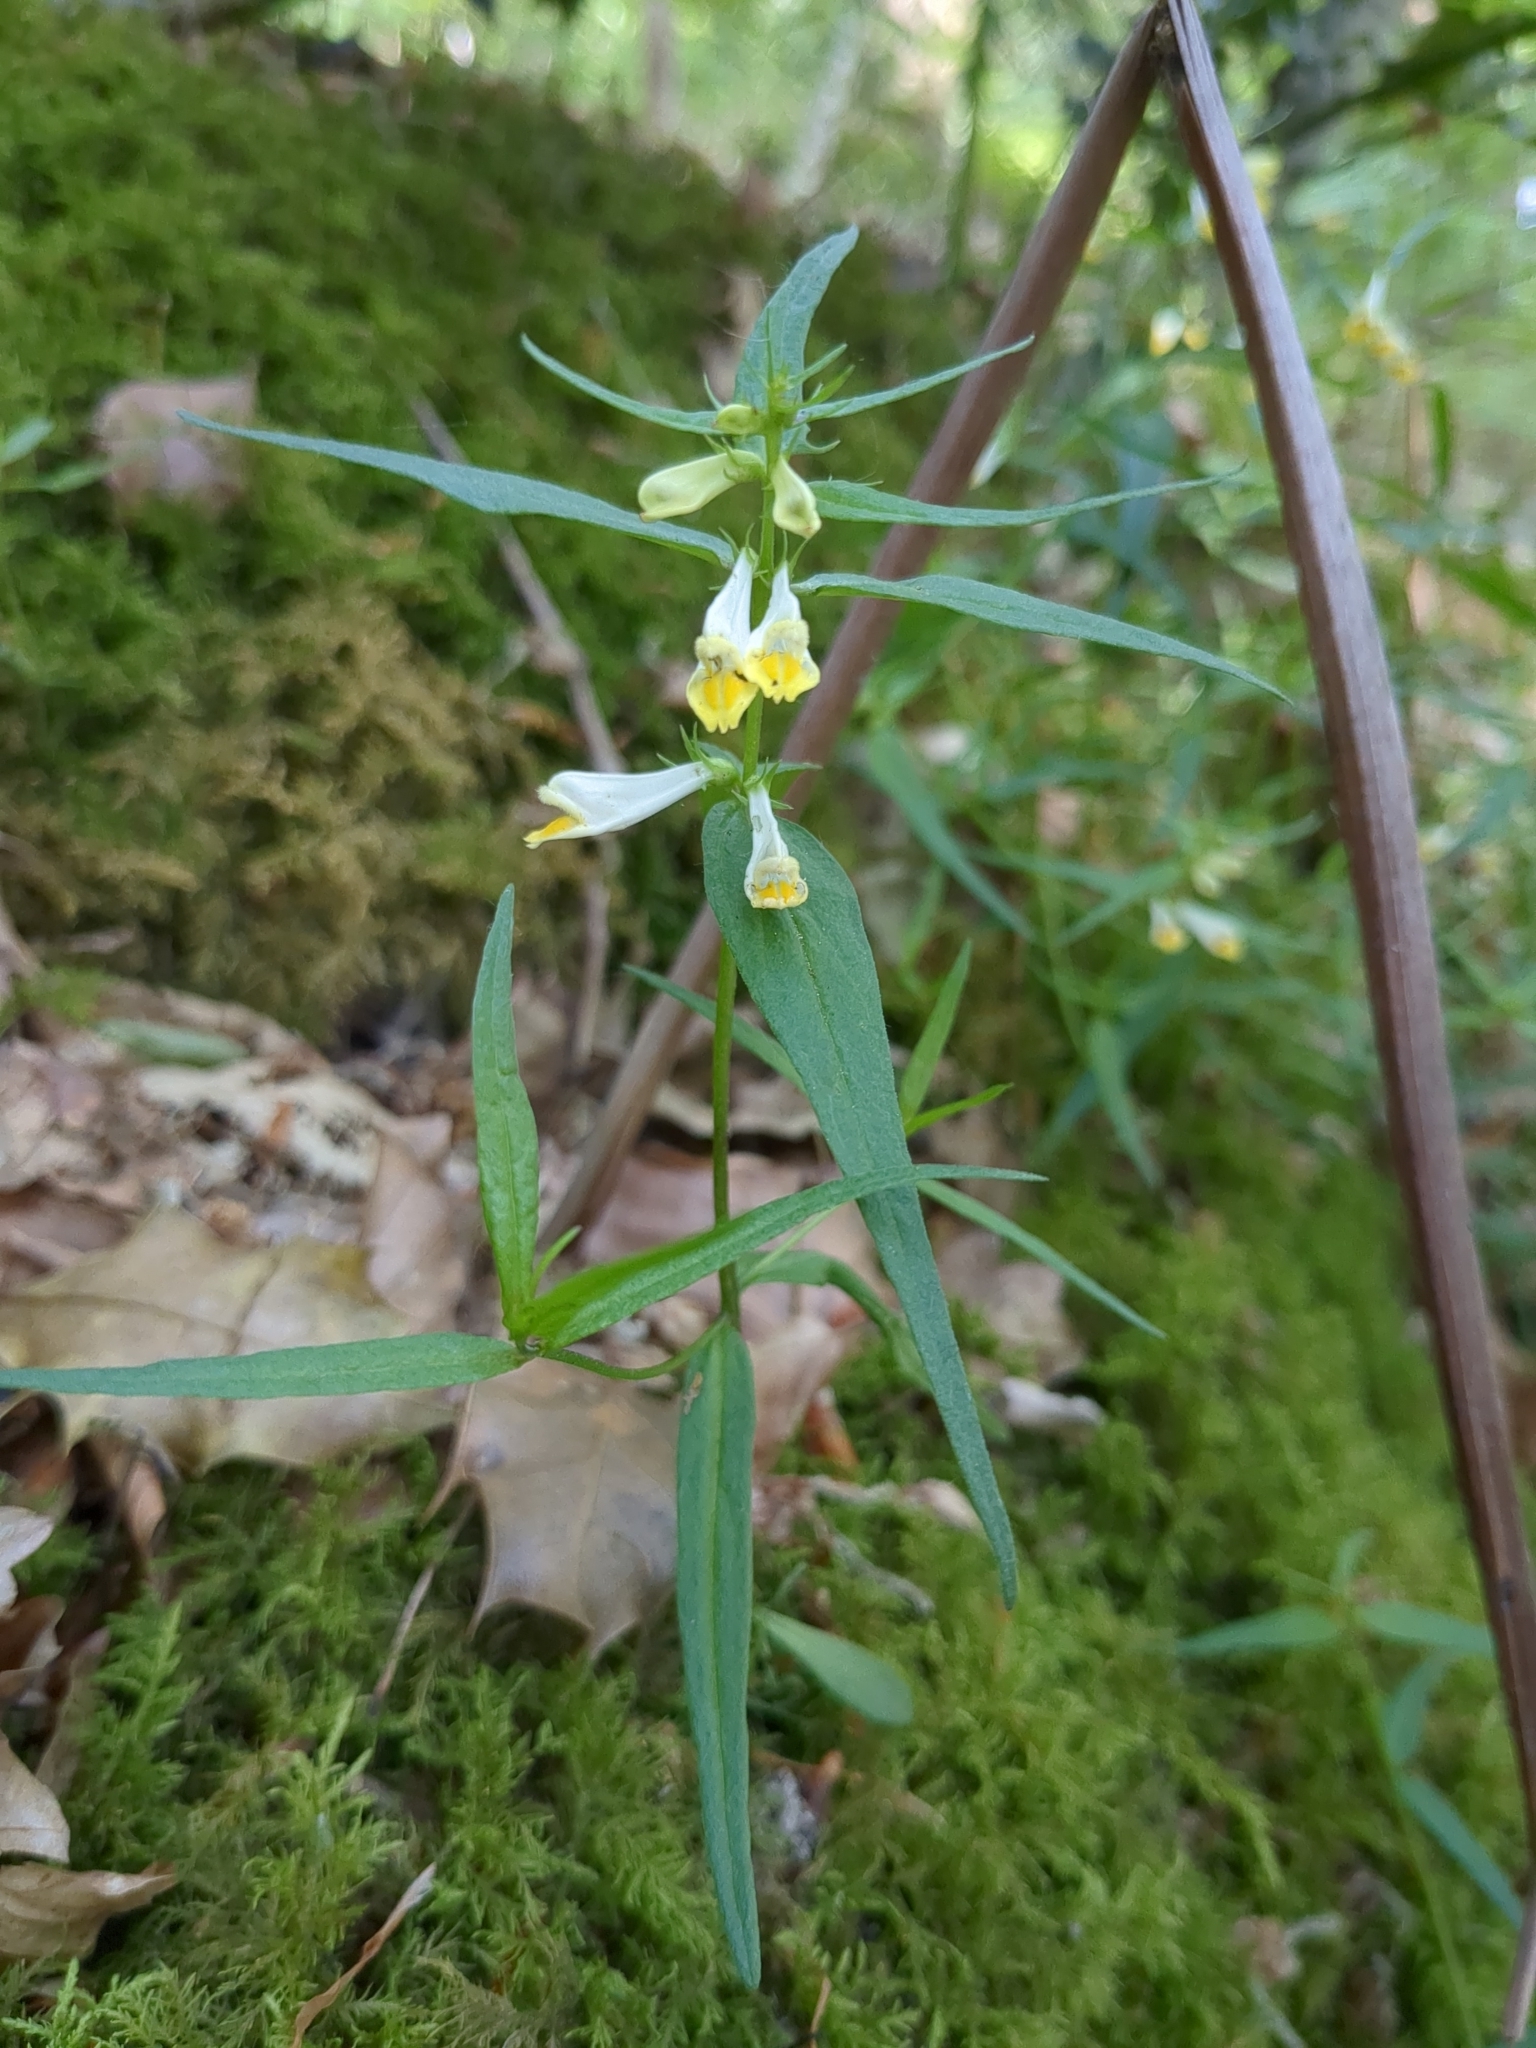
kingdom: Plantae
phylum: Tracheophyta
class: Magnoliopsida
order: Lamiales
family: Orobanchaceae
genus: Melampyrum
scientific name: Melampyrum pratense
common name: Common cow-wheat
